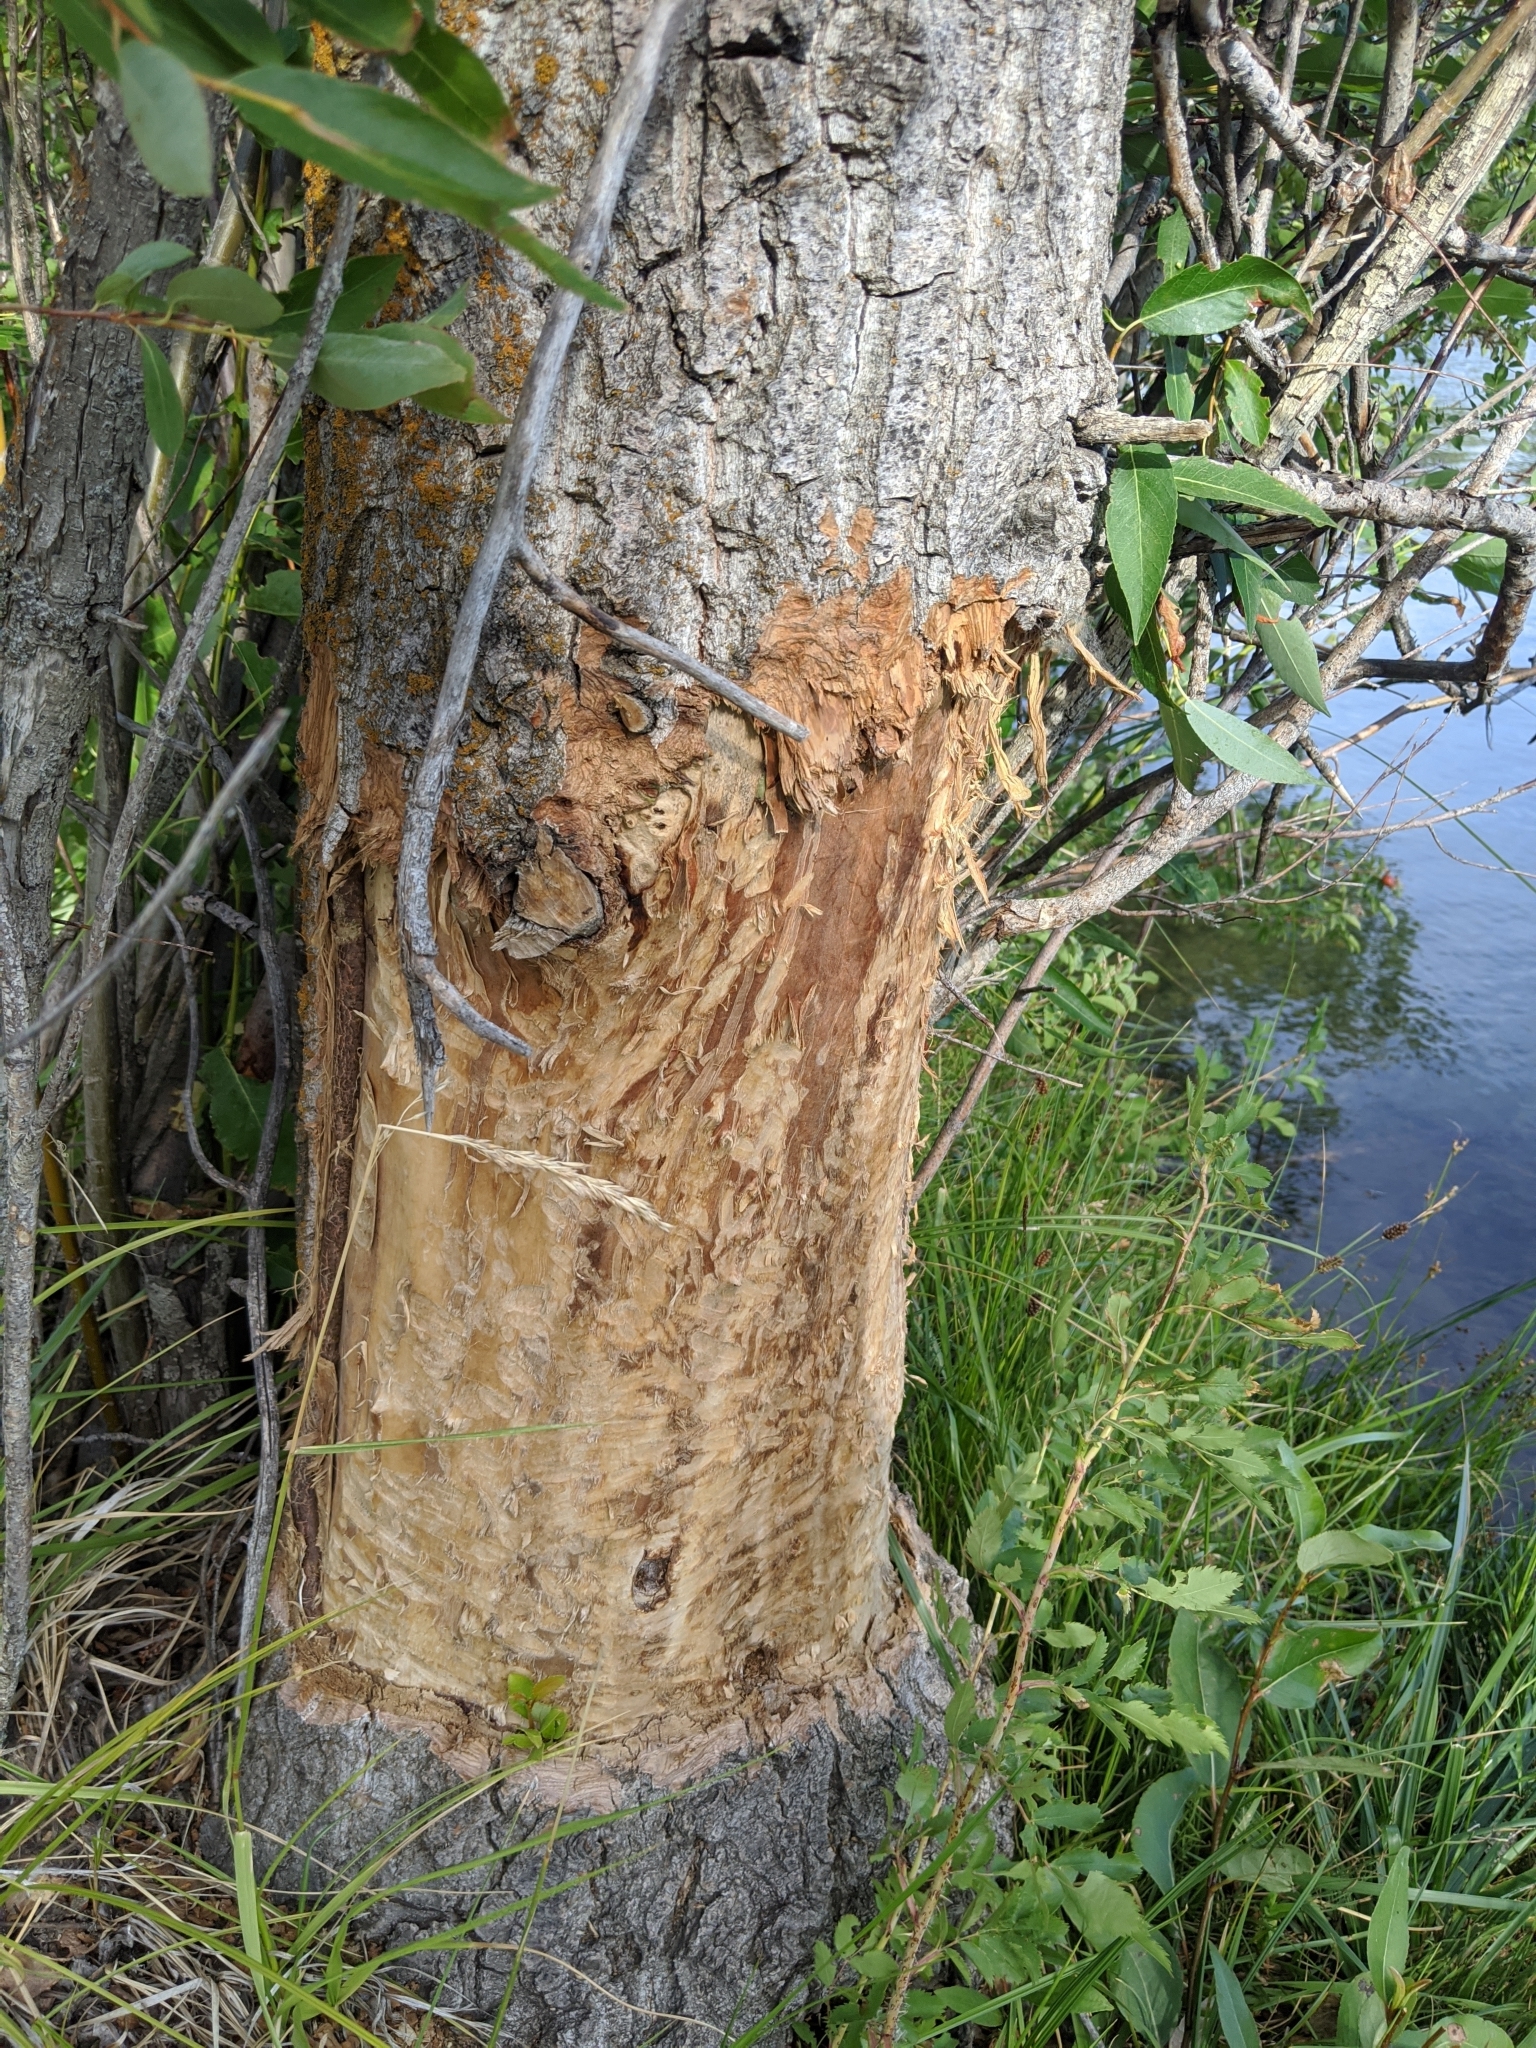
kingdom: Animalia
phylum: Chordata
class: Mammalia
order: Rodentia
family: Castoridae
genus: Castor
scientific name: Castor canadensis
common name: American beaver
